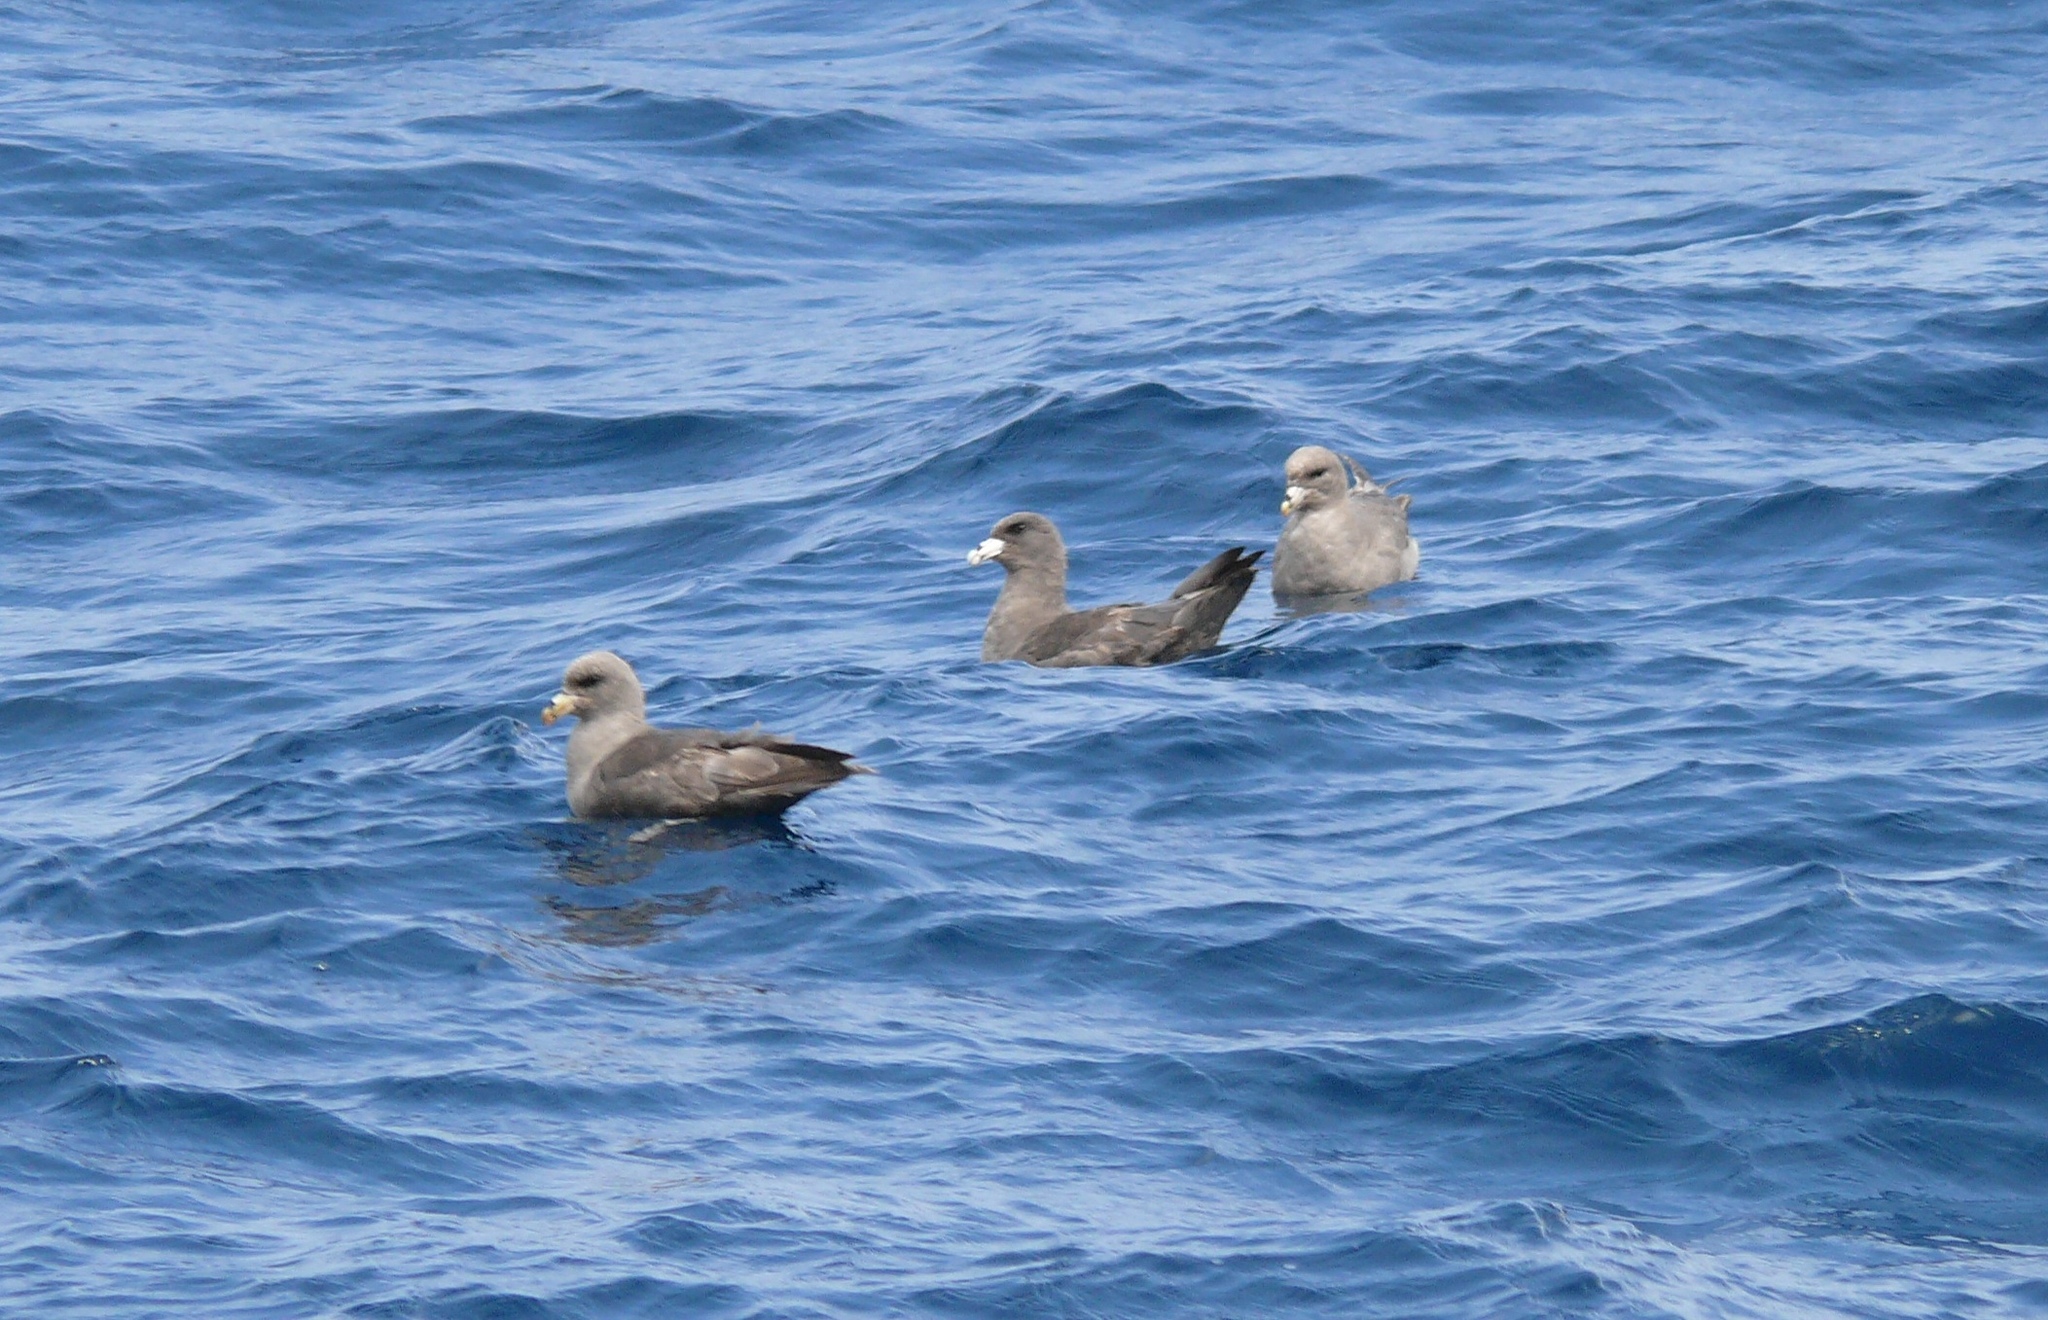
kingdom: Animalia
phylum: Chordata
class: Aves
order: Procellariiformes
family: Procellariidae
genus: Fulmarus
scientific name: Fulmarus glacialis
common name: Northern fulmar
